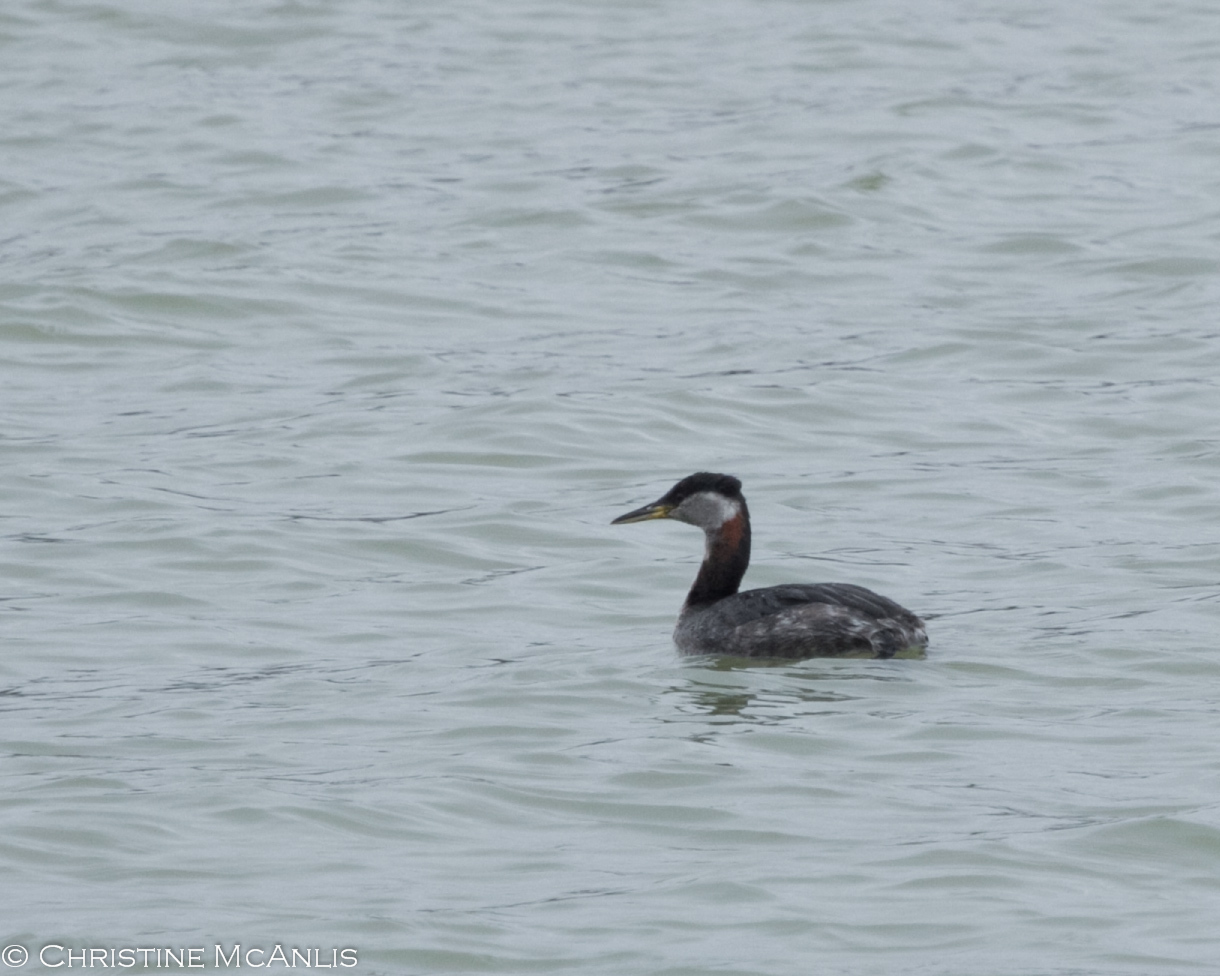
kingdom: Animalia
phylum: Chordata
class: Aves
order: Podicipediformes
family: Podicipedidae
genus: Podiceps
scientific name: Podiceps grisegena
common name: Red-necked grebe
